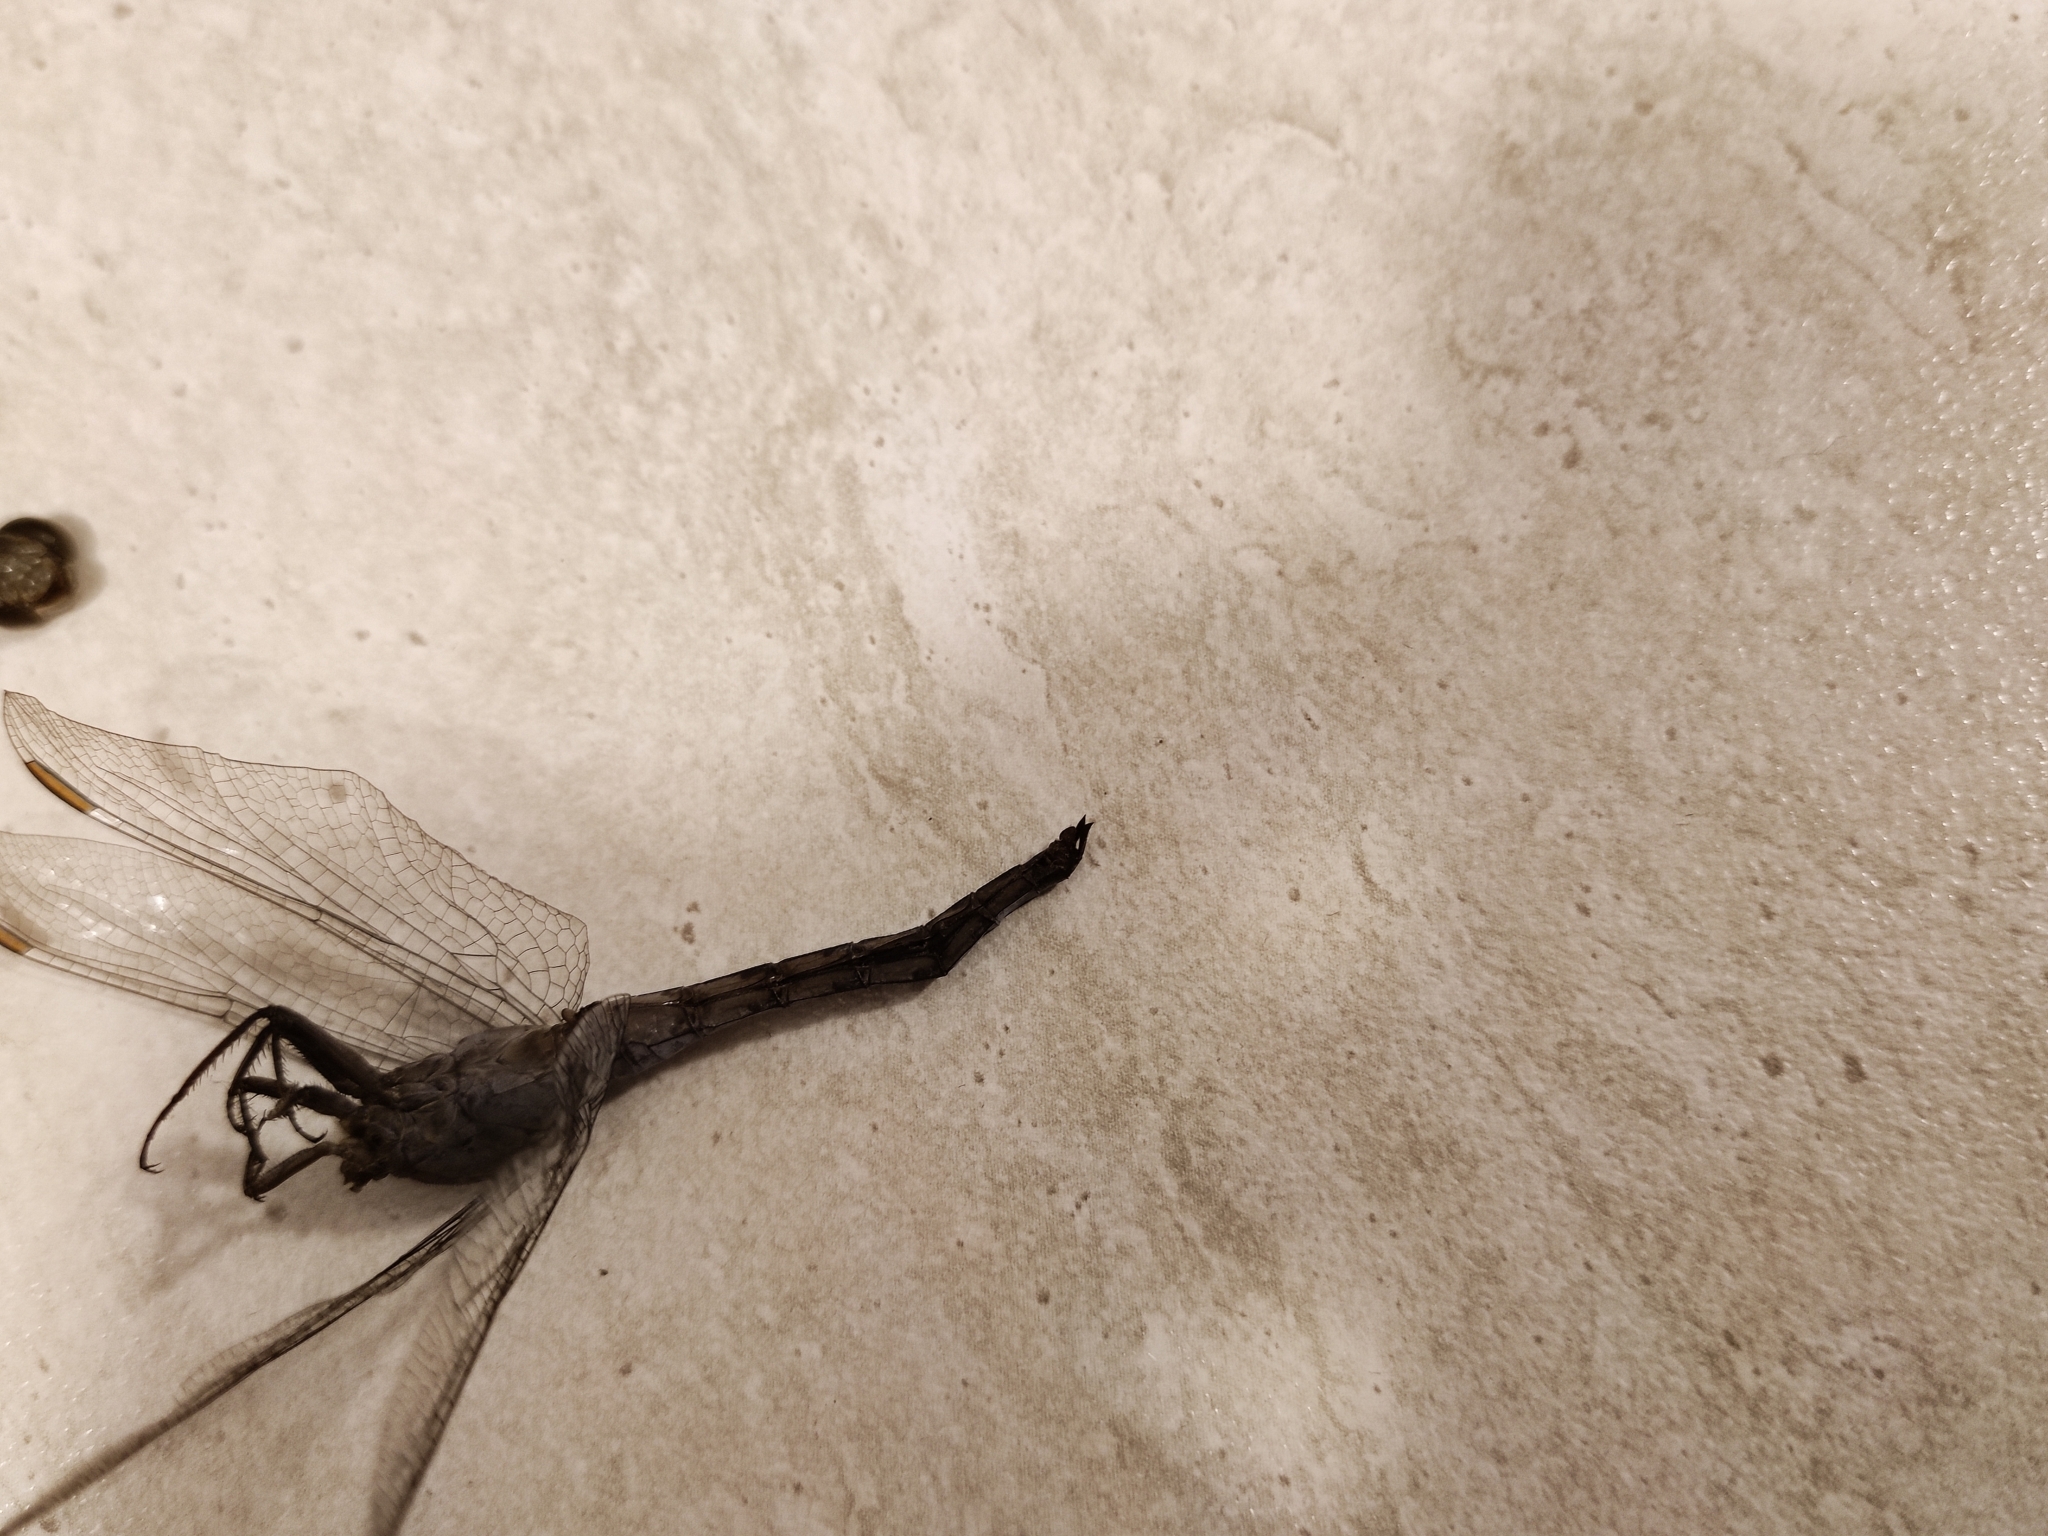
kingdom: Animalia
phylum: Arthropoda
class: Insecta
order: Odonata
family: Libellulidae
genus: Orthetrum
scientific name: Orthetrum coerulescens
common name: Keeled skimmer
